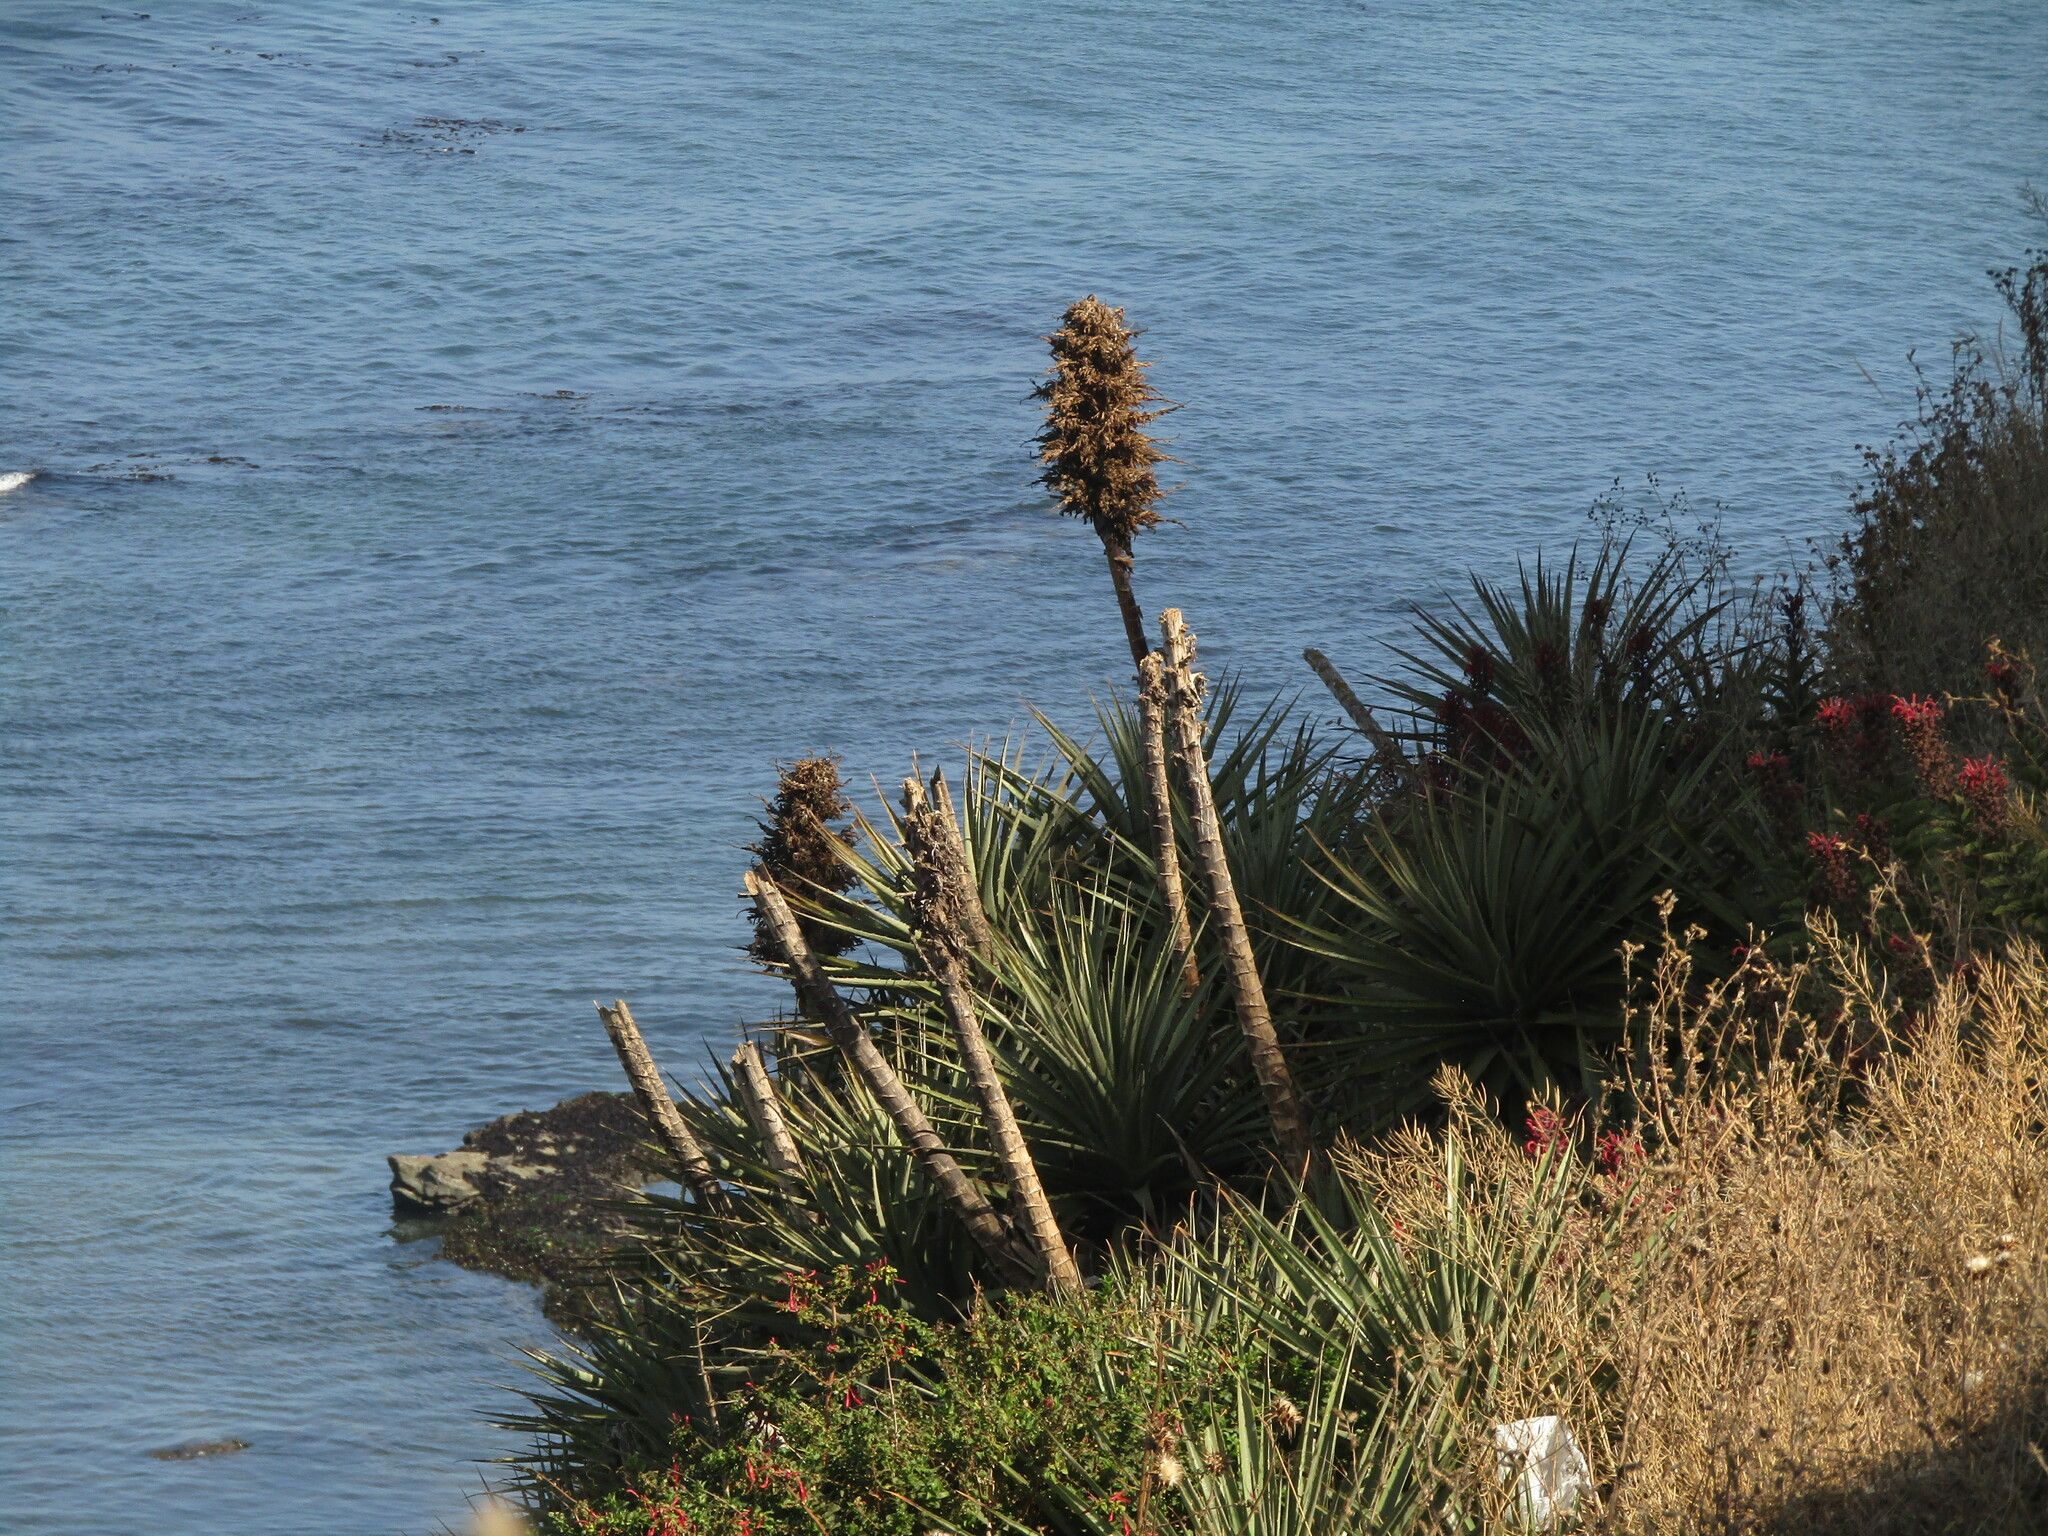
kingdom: Plantae
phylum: Tracheophyta
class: Liliopsida
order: Poales
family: Bromeliaceae
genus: Puya
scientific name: Puya chilensis
